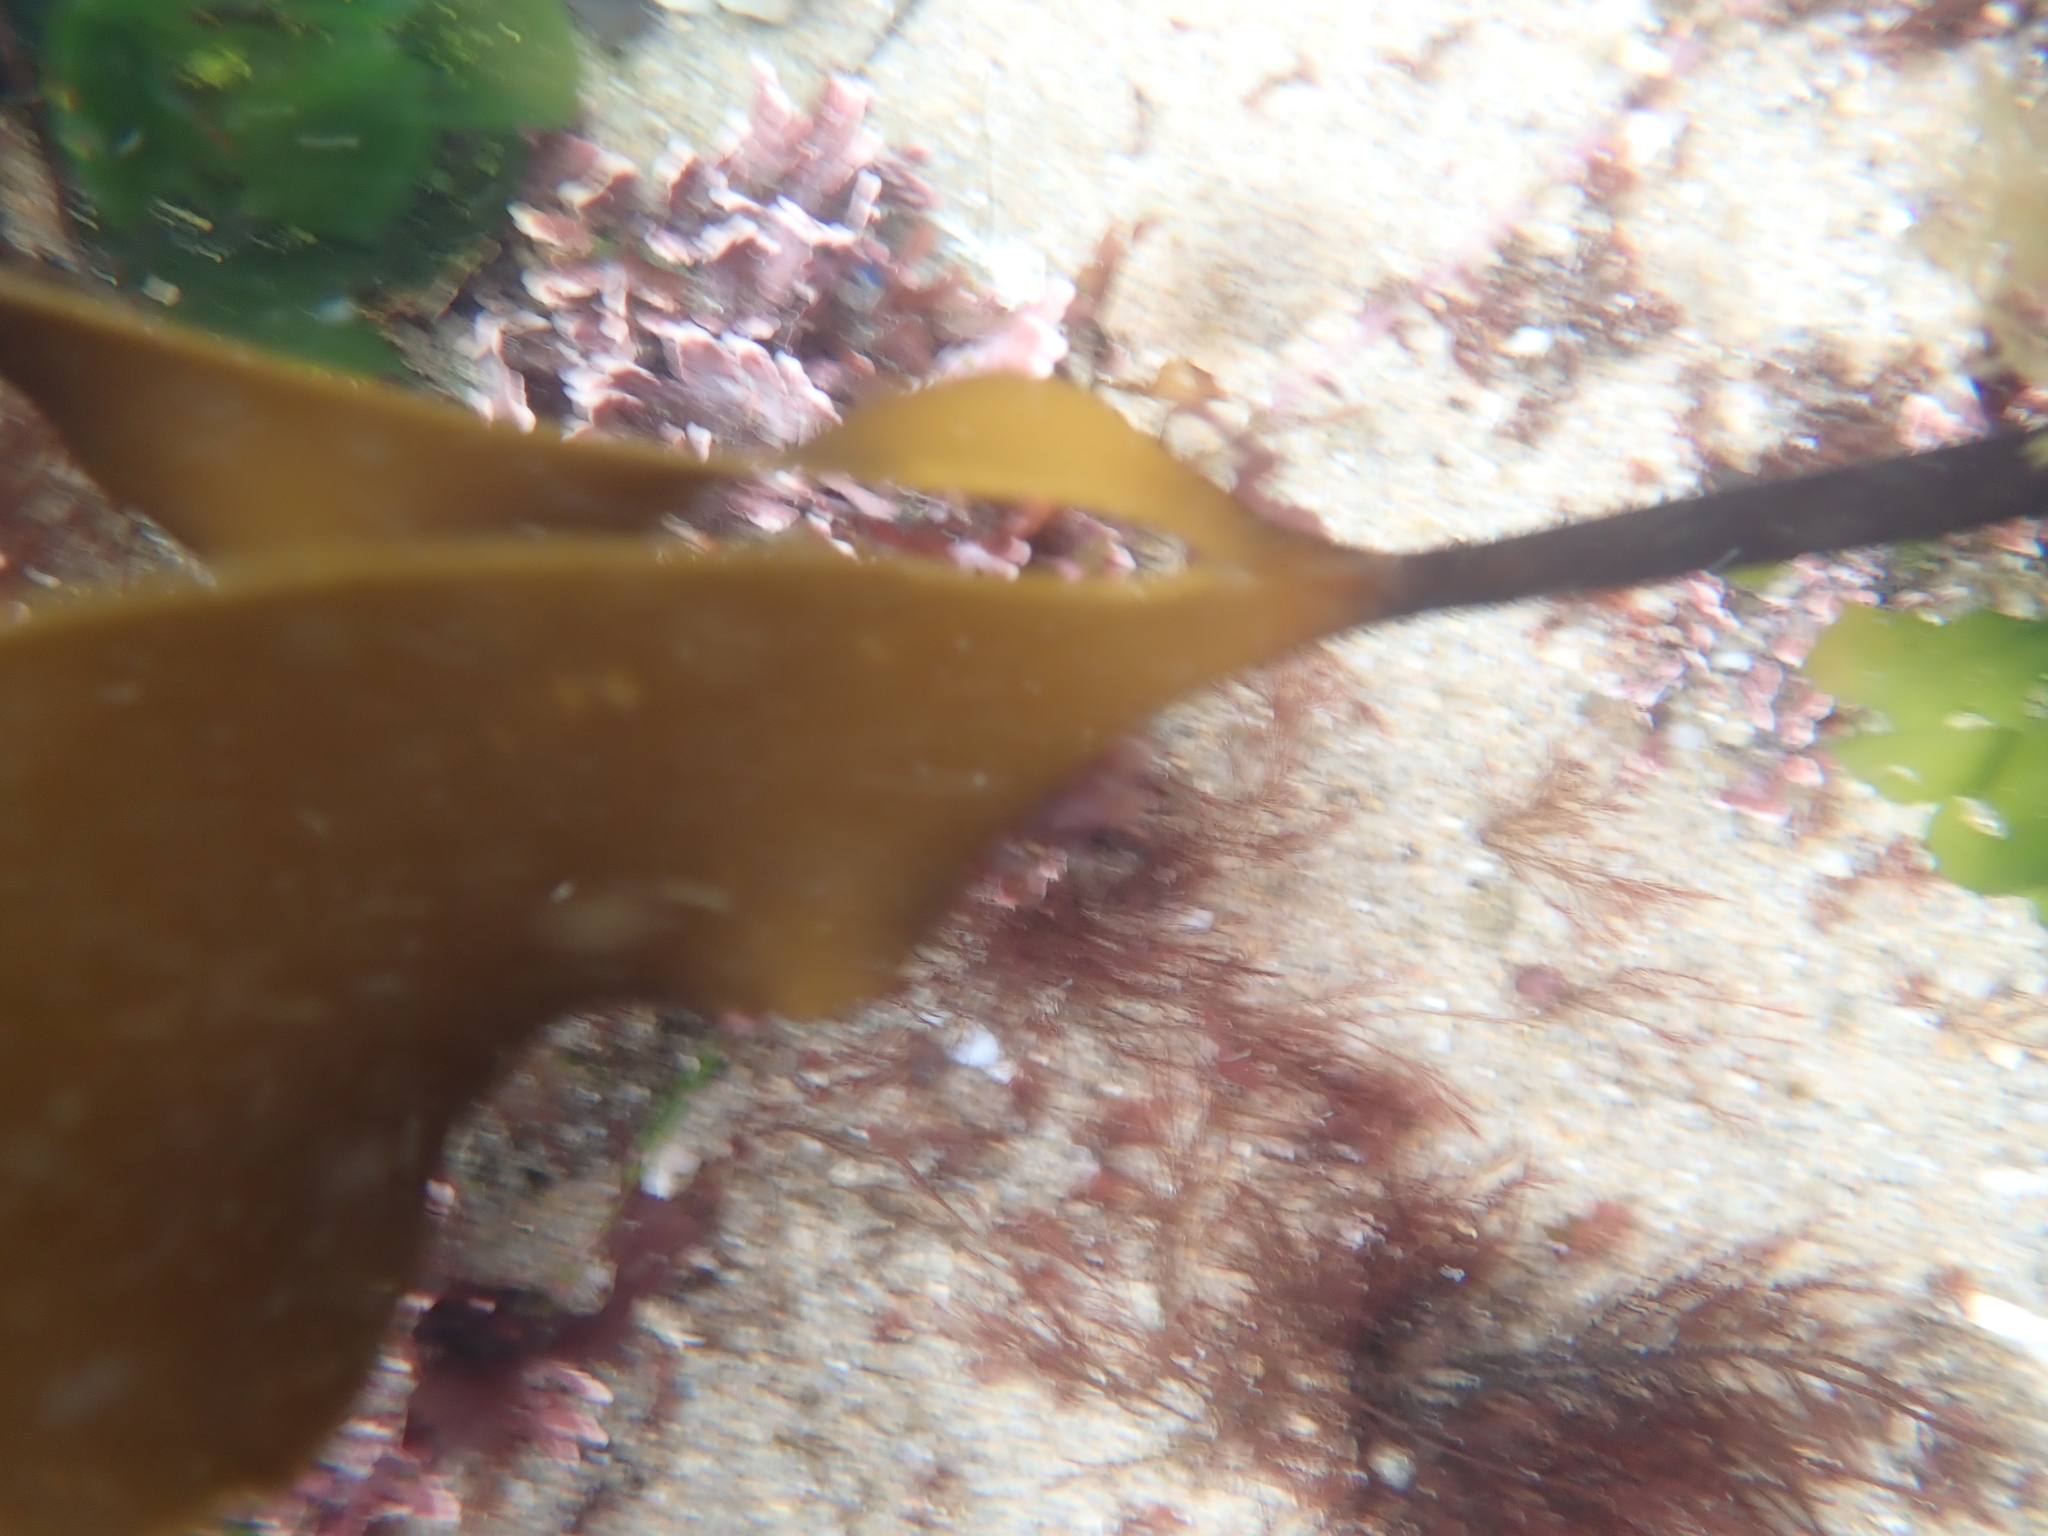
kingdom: Chromista
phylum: Ochrophyta
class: Phaeophyceae
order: Laminariales
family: Laminariaceae
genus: Laminaria
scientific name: Laminaria setchellii
